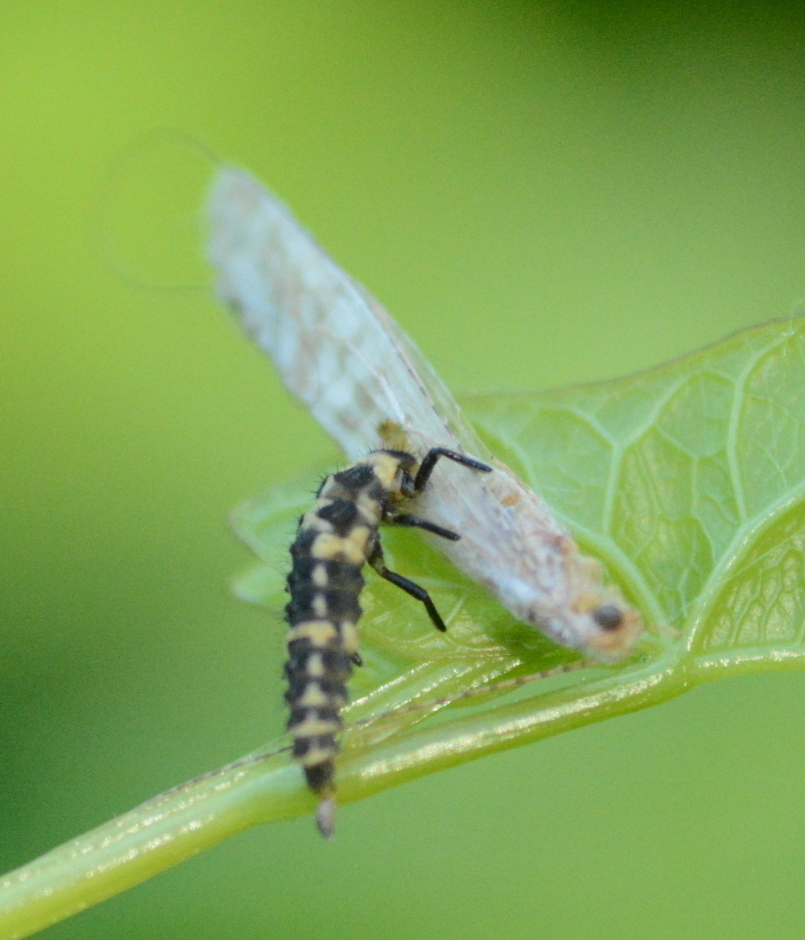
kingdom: Animalia
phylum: Arthropoda
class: Insecta
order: Coleoptera
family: Coccinellidae
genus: Coleomegilla
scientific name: Coleomegilla maculata
